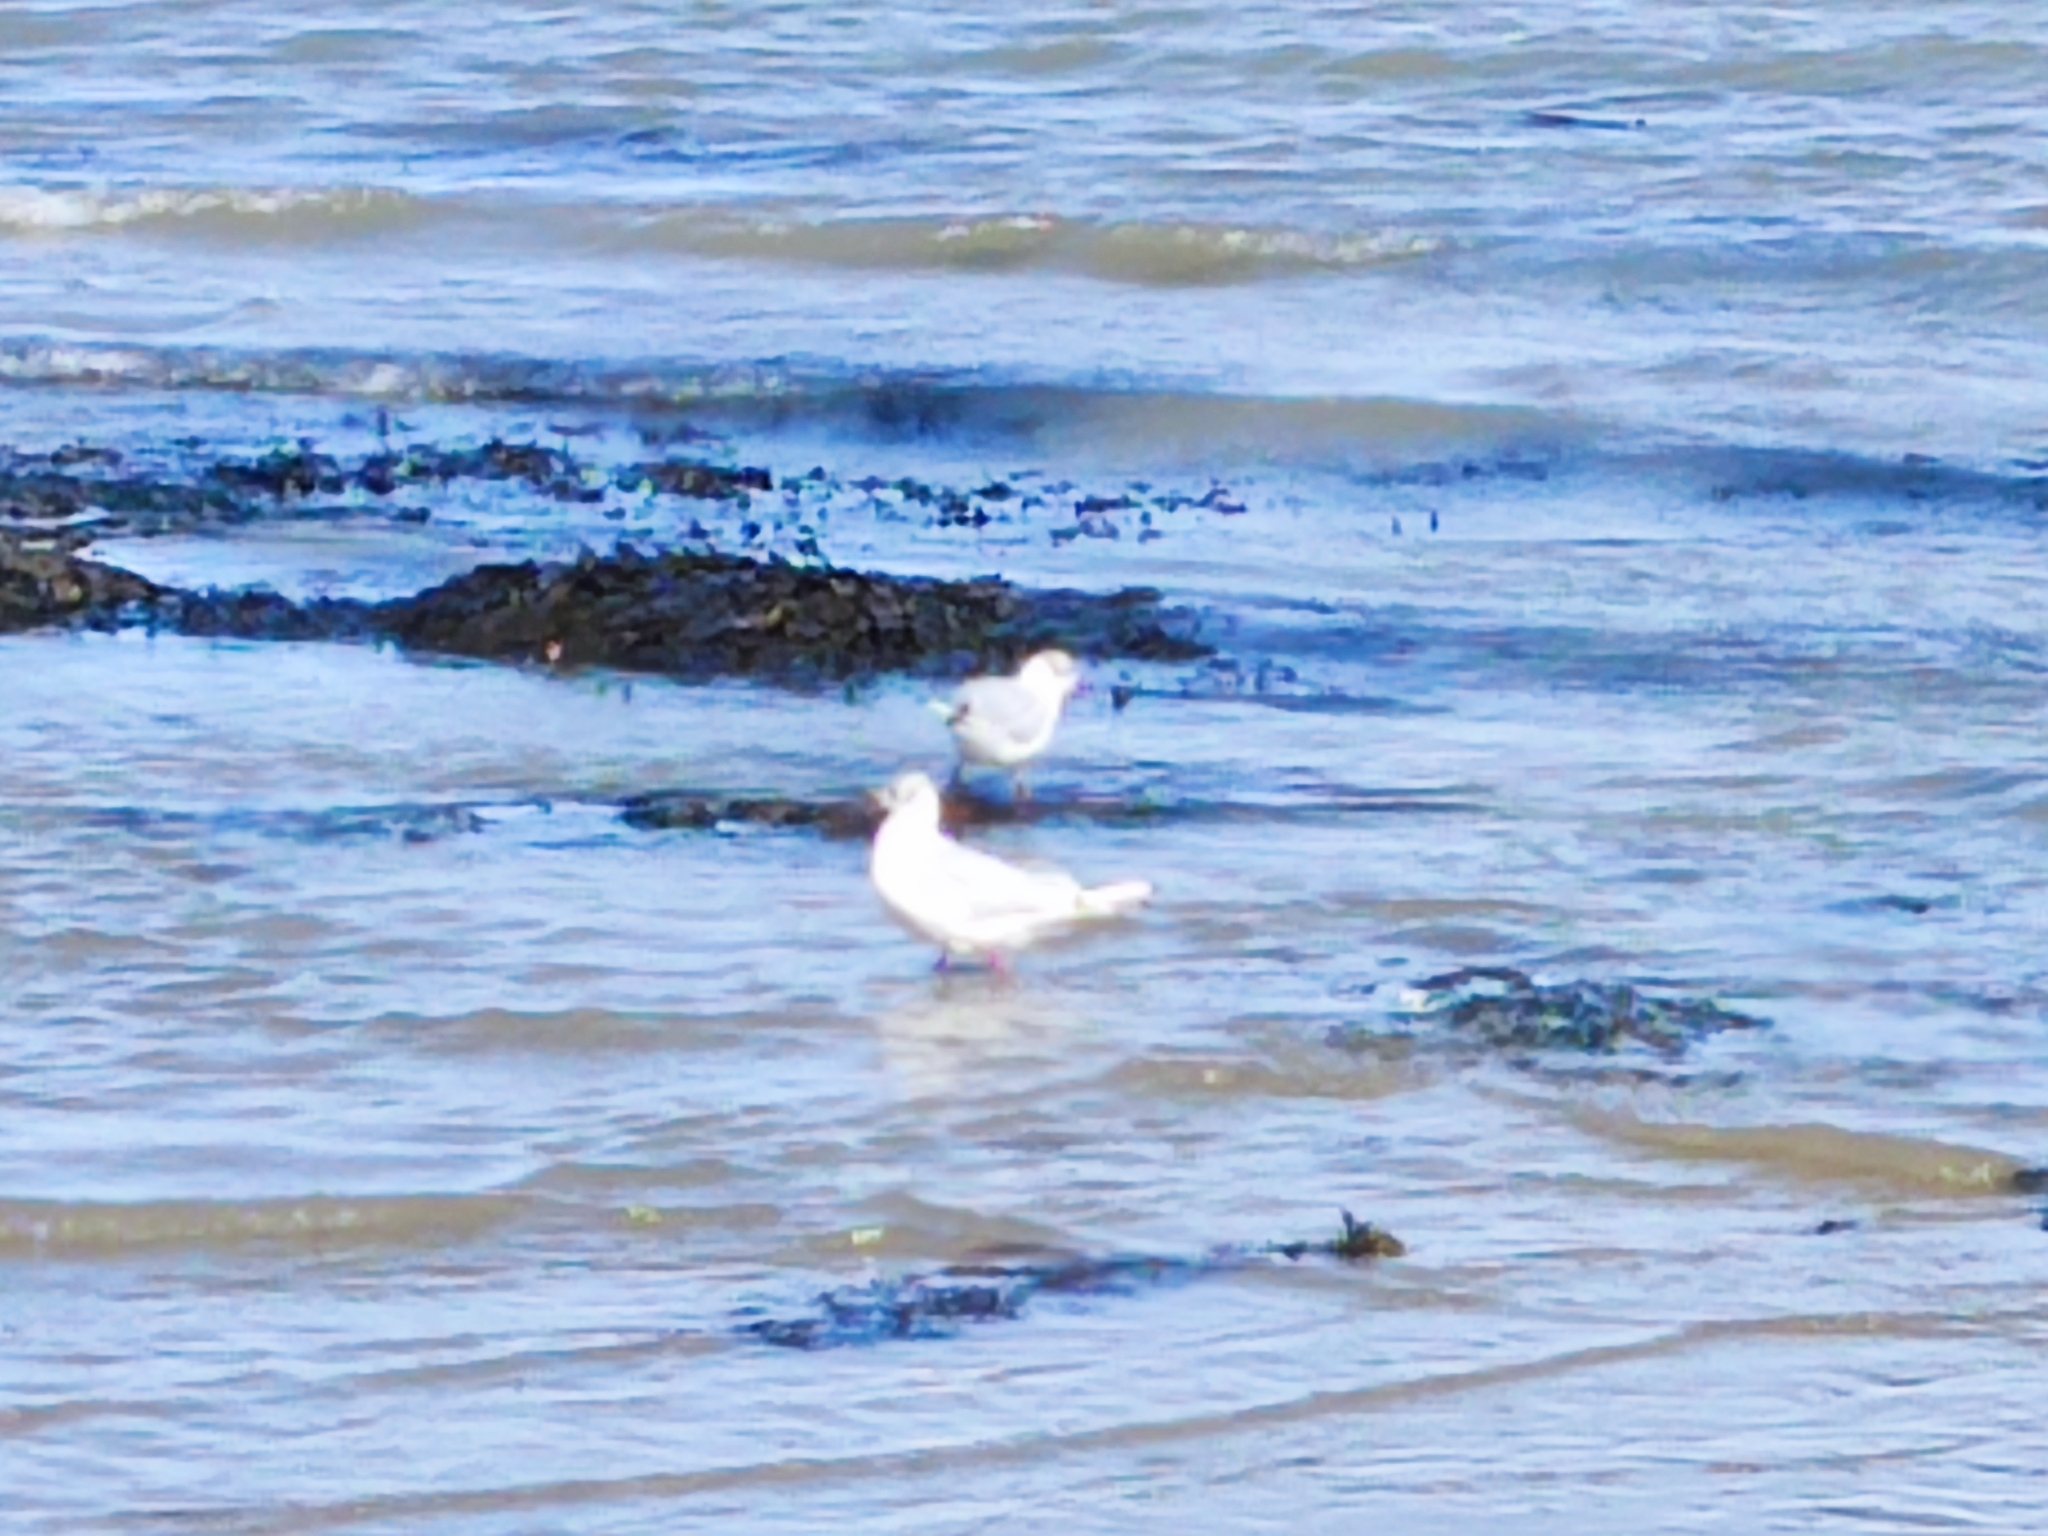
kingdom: Animalia
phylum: Chordata
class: Aves
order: Charadriiformes
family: Laridae
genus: Chroicocephalus
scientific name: Chroicocephalus ridibundus
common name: Black-headed gull
